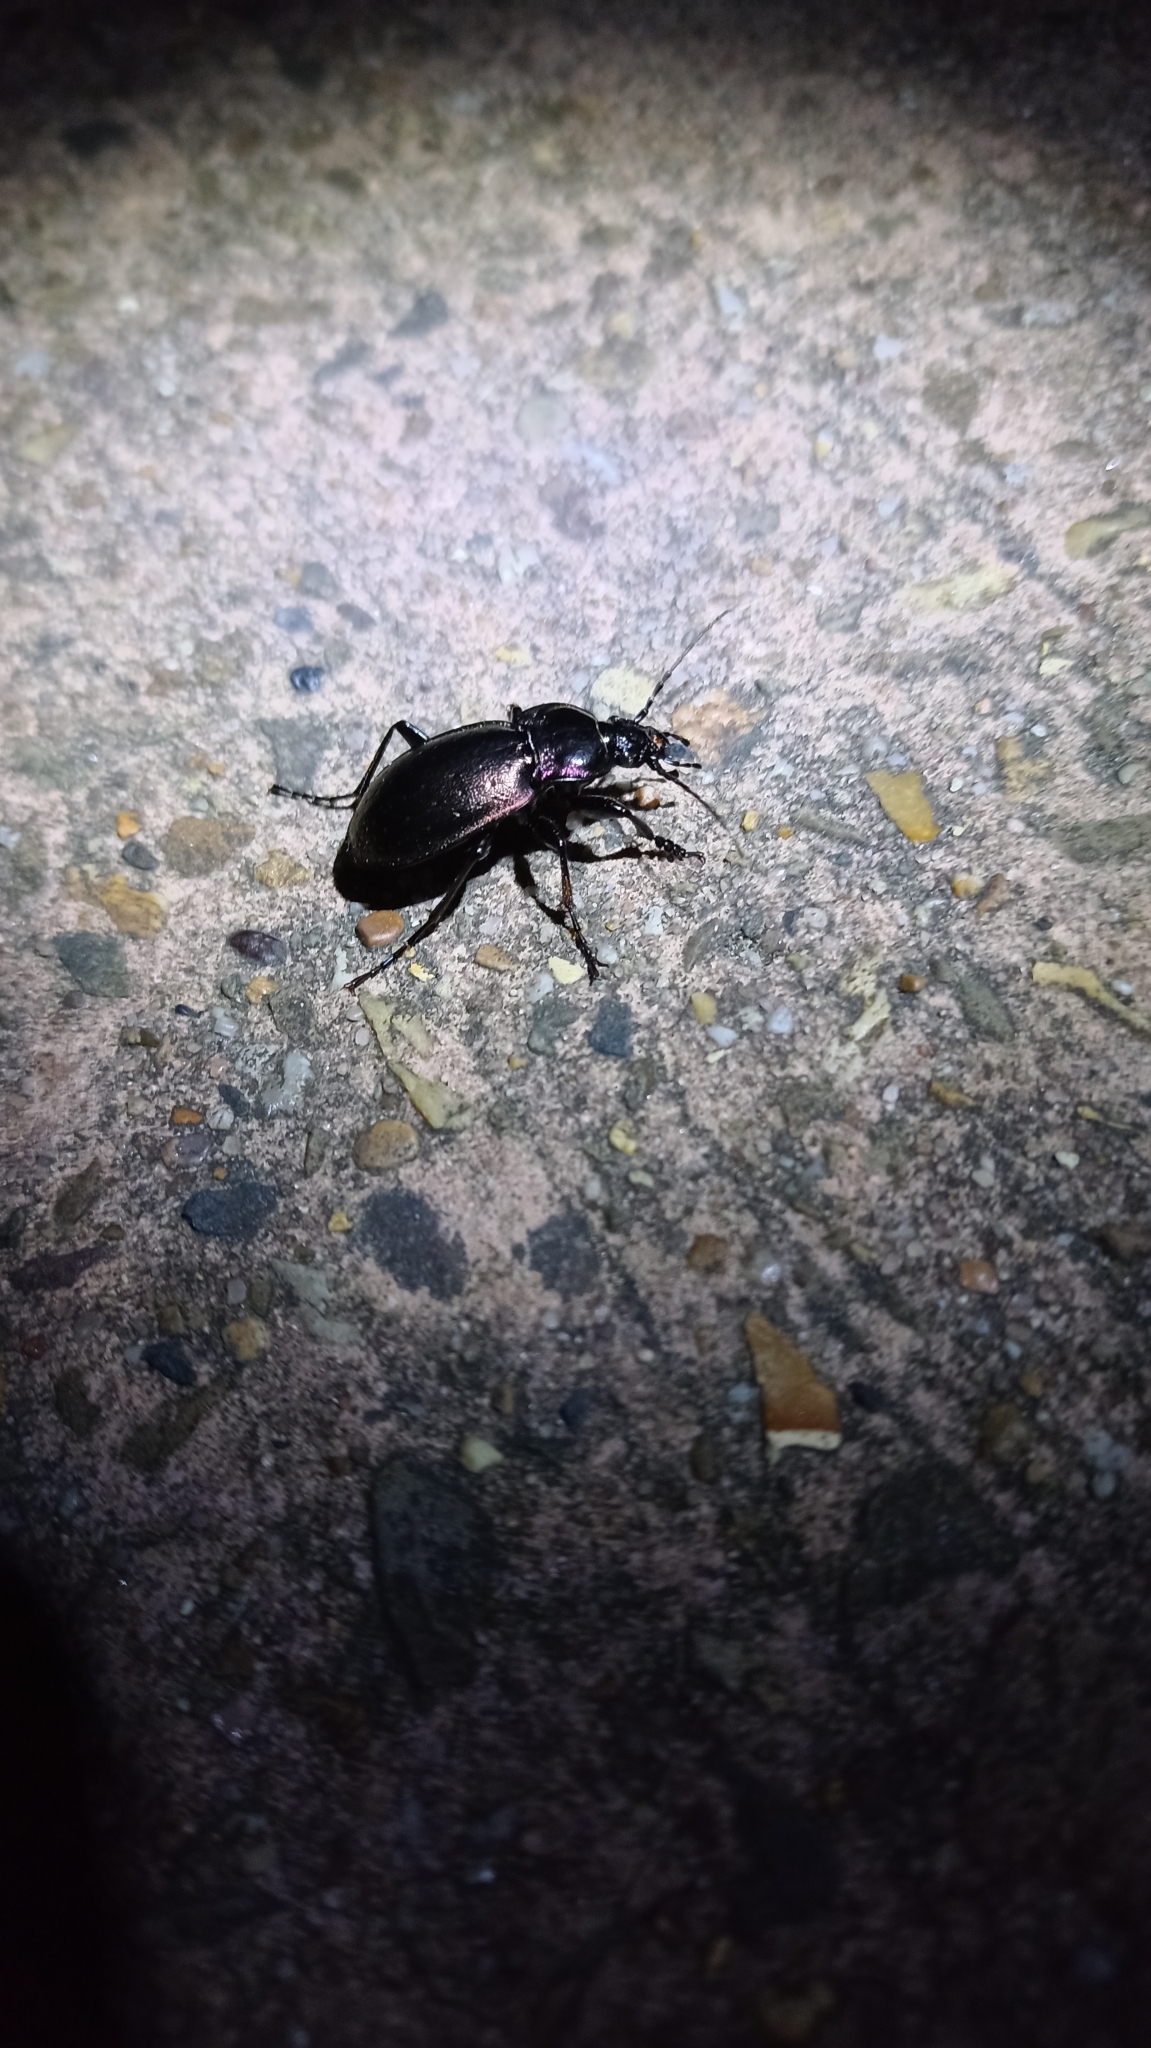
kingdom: Animalia
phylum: Arthropoda
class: Insecta
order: Coleoptera
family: Carabidae
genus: Carabus
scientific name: Carabus nemoralis
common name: European ground beetle
